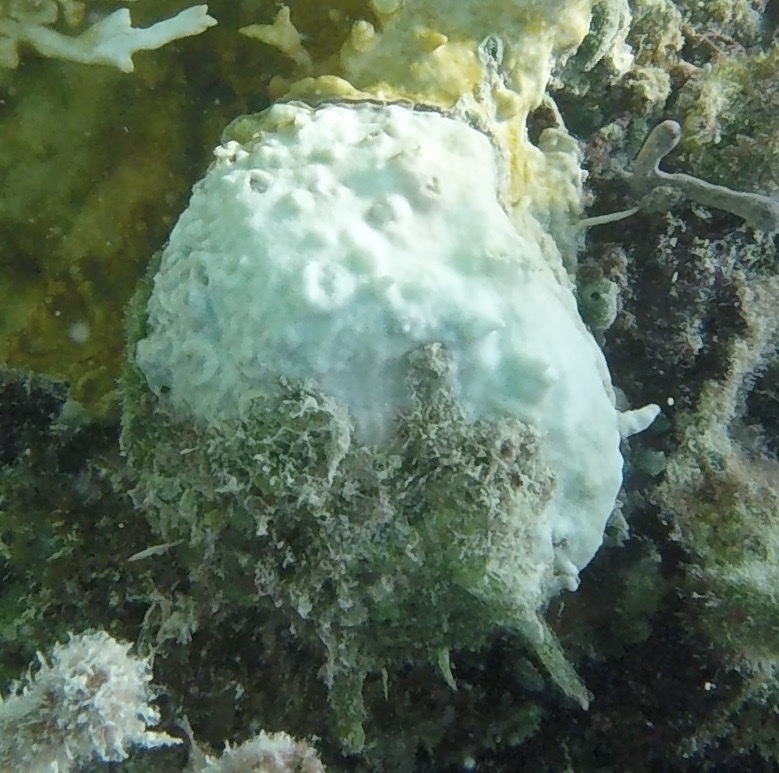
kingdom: Animalia
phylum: Mollusca
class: Bivalvia
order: Pectinida
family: Spondylidae
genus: Spondylus
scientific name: Spondylus tenuis
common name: Digitate thorny oyster
